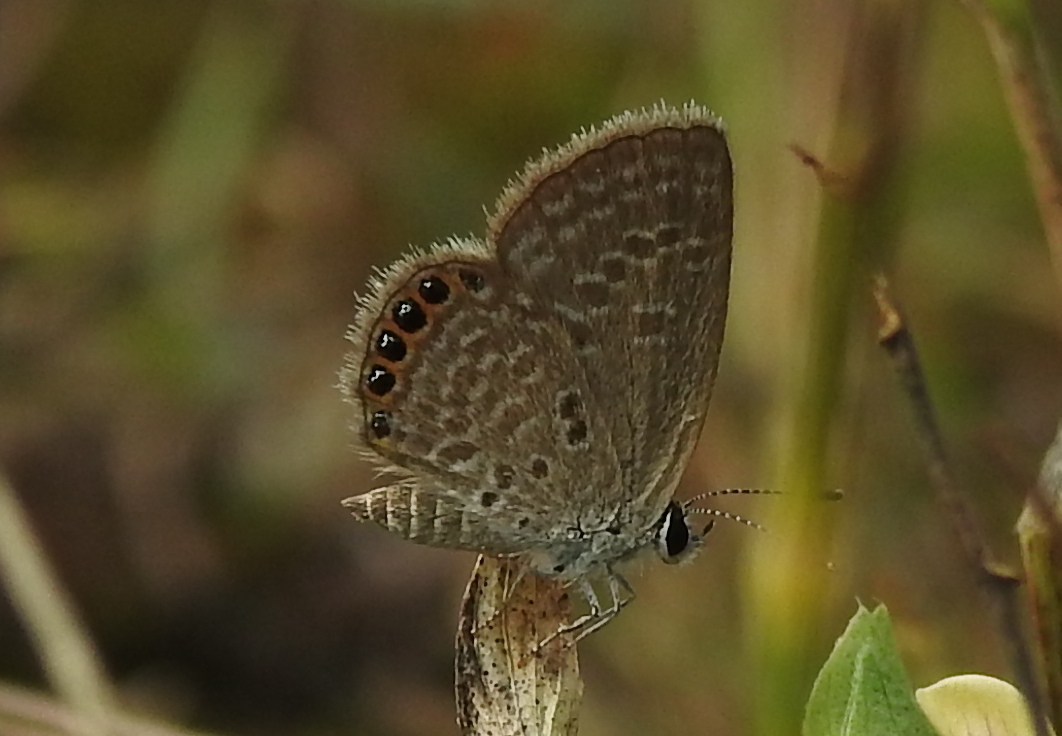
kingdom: Animalia
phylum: Arthropoda
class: Insecta
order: Lepidoptera
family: Lycaenidae
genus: Freyeria
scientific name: Freyeria putli
